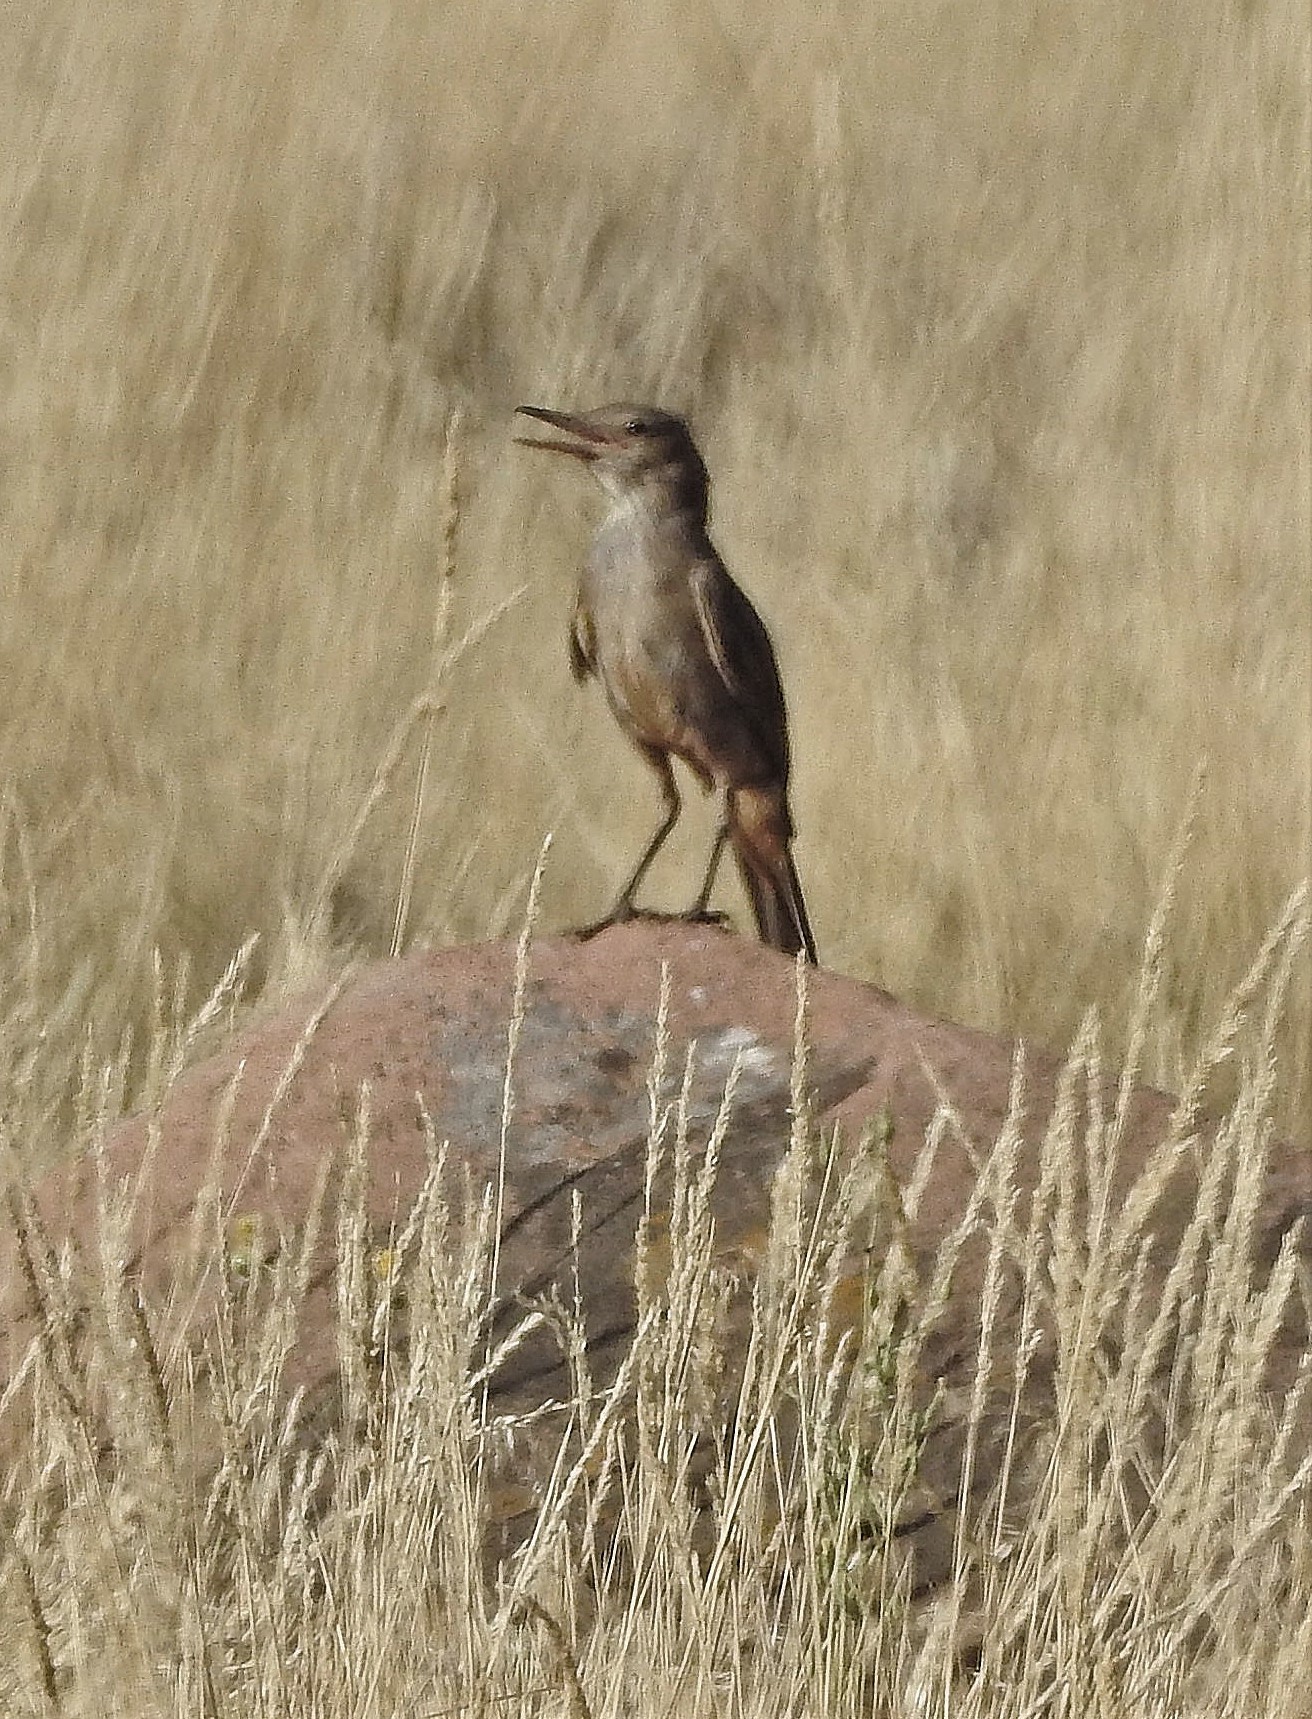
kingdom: Animalia
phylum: Chordata
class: Aves
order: Passeriformes
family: Tyrannidae
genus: Agriornis
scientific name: Agriornis lividus
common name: Great shrike-tyrant
